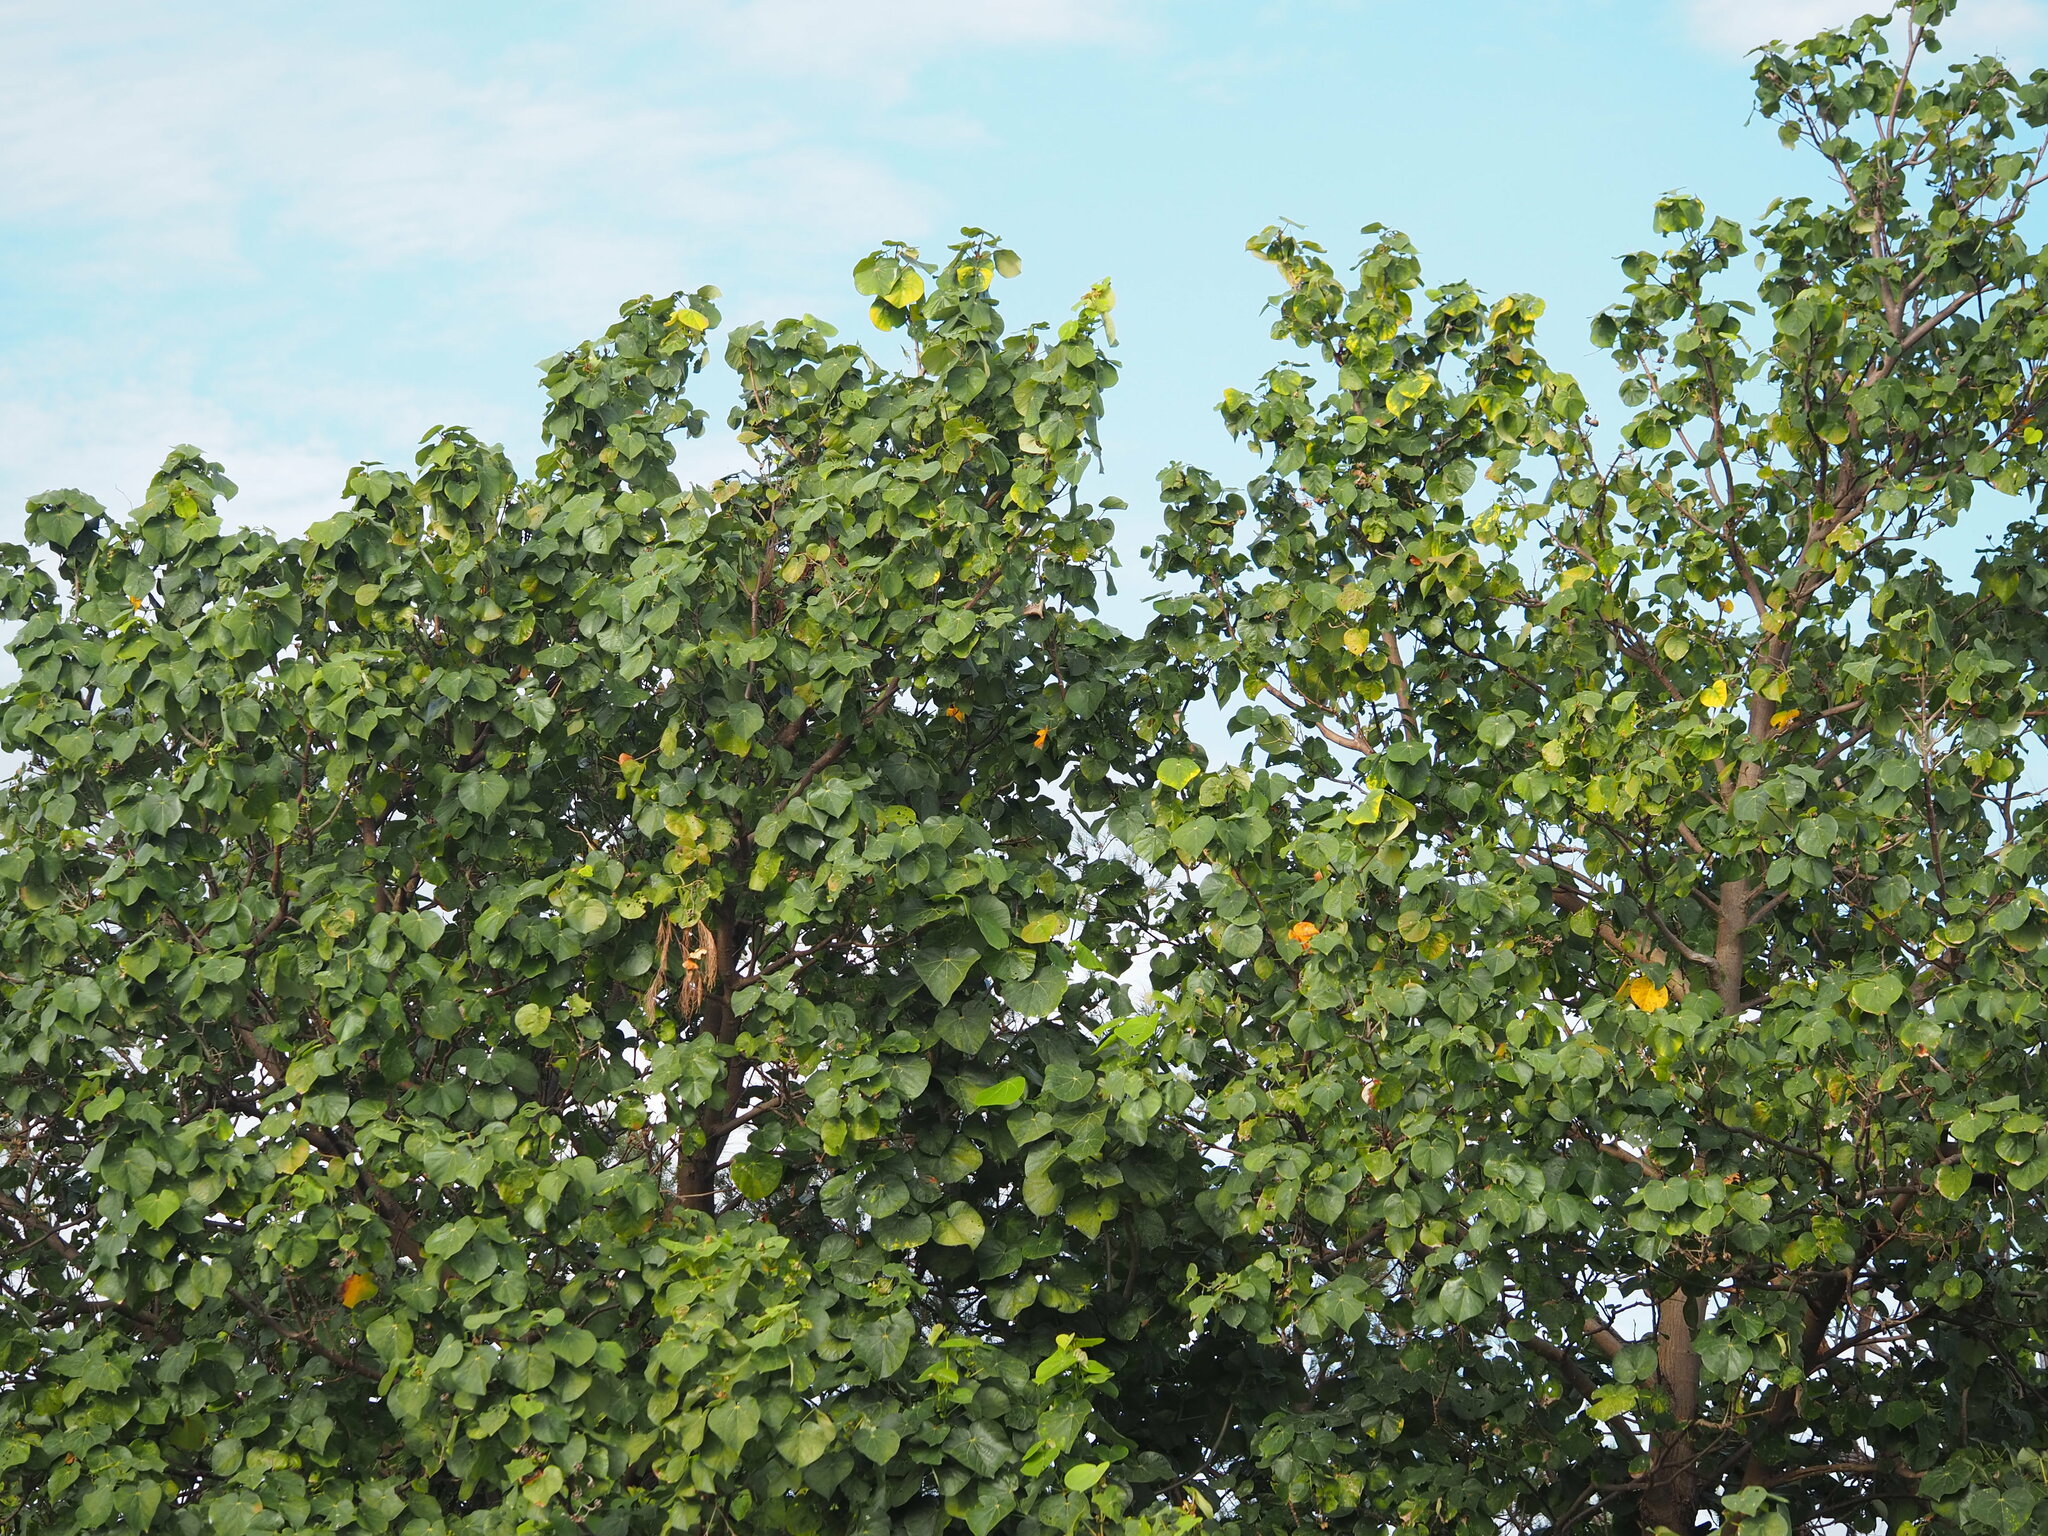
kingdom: Plantae
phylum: Tracheophyta
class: Magnoliopsida
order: Malvales
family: Malvaceae
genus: Talipariti
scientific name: Talipariti tiliaceum
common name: Sea hibiscus
